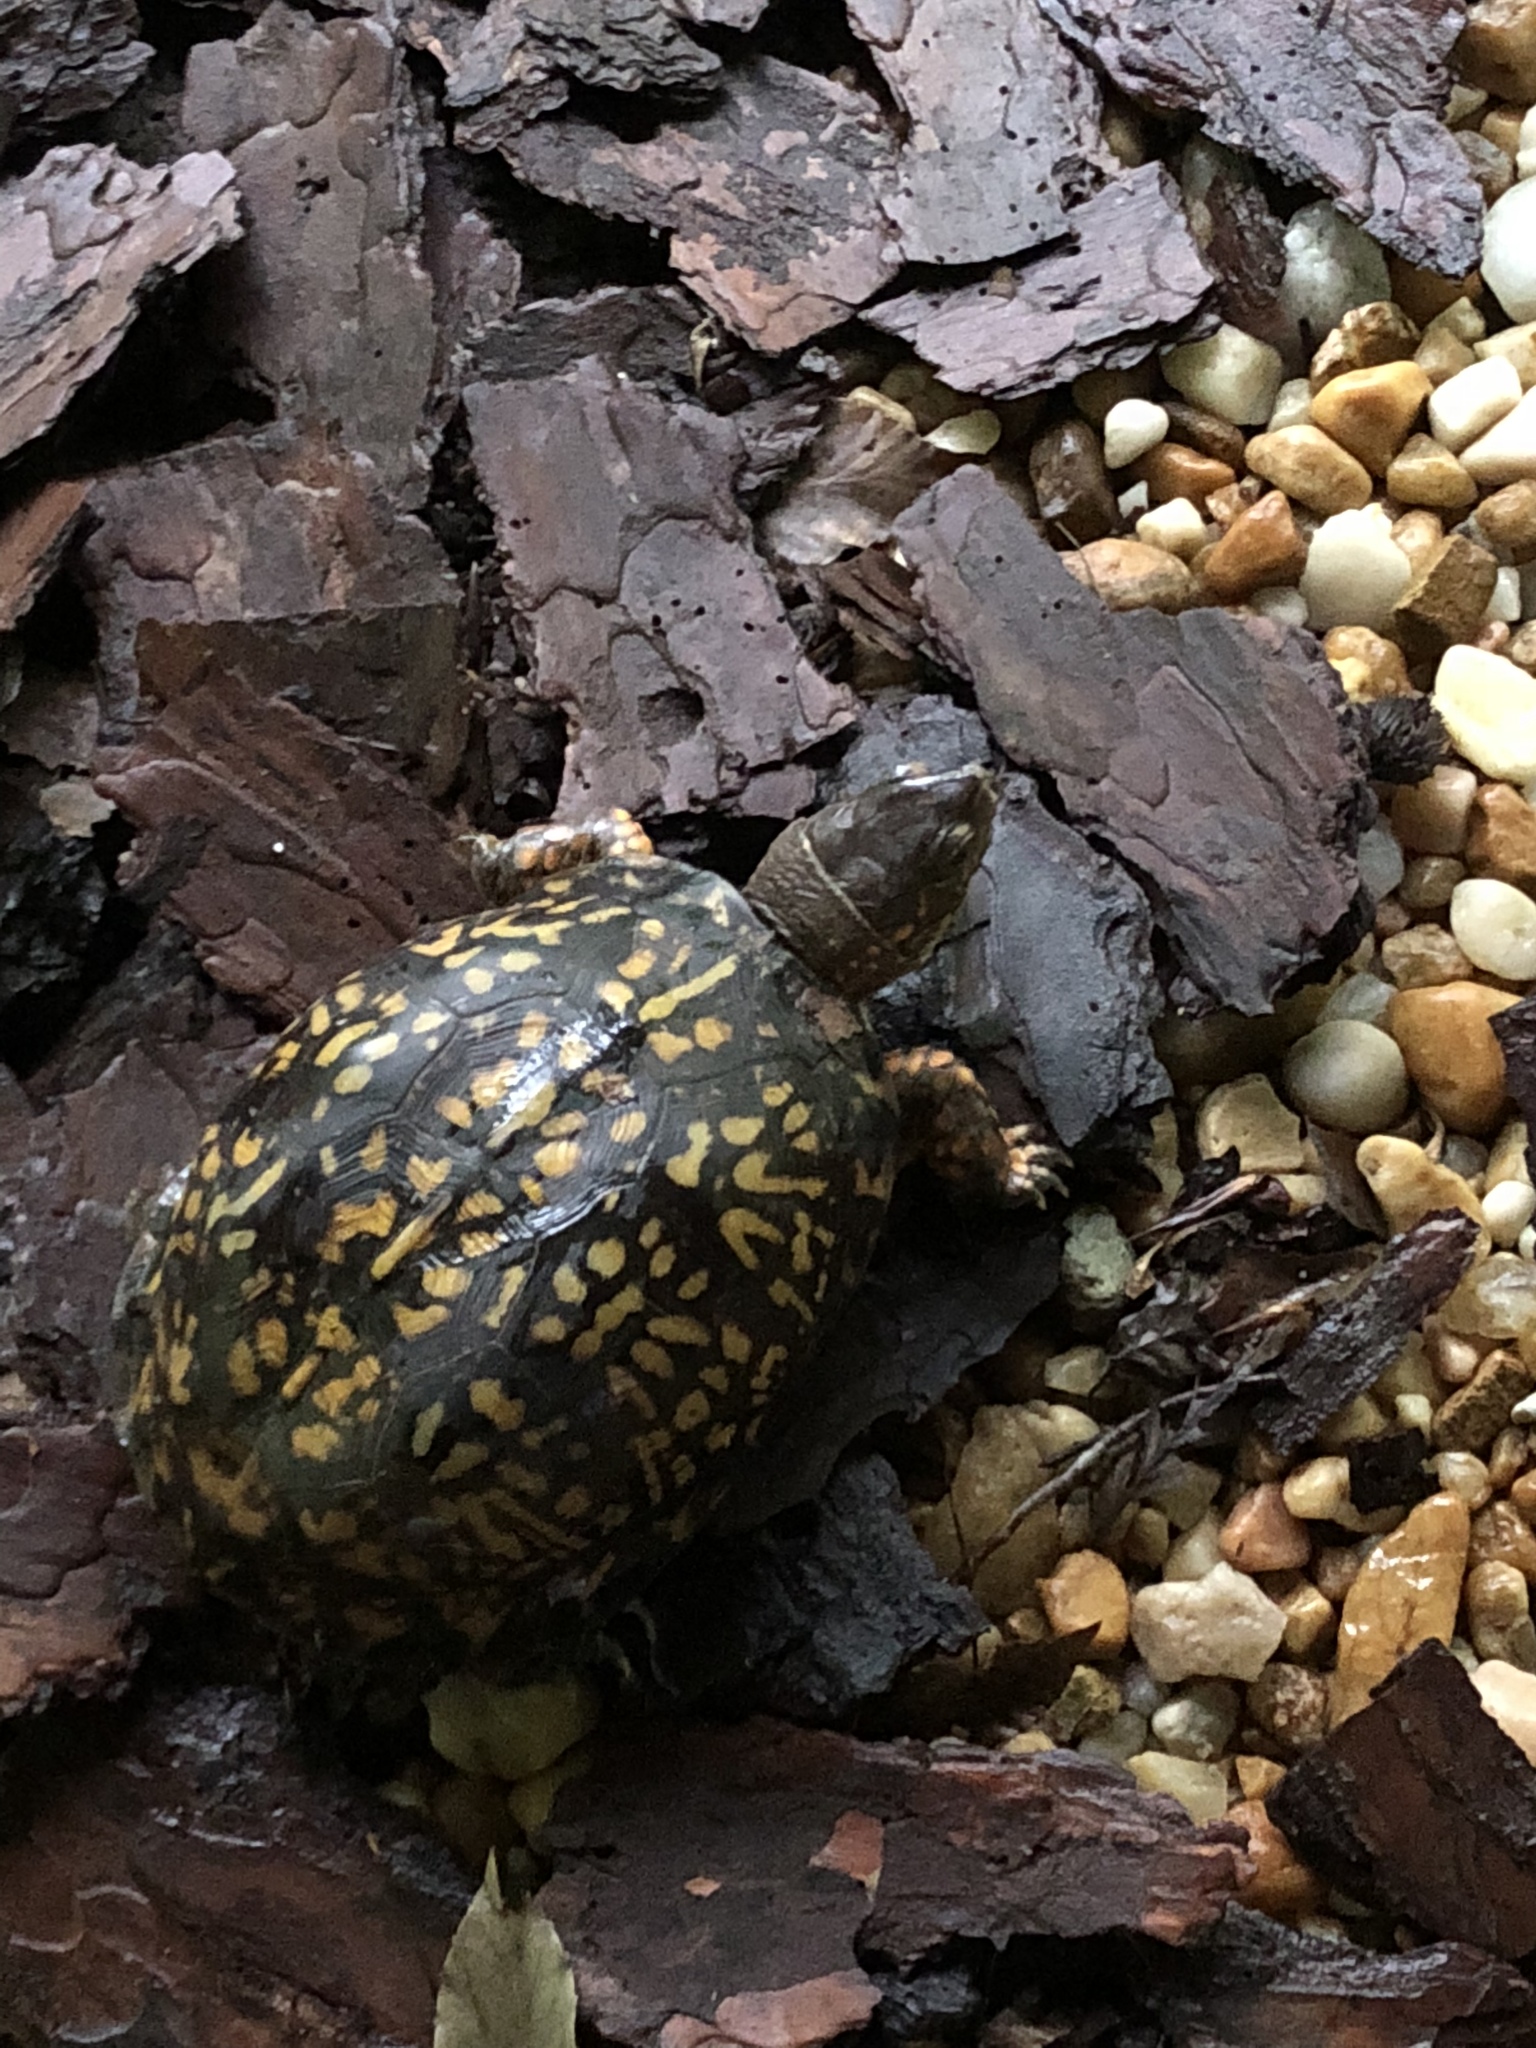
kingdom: Animalia
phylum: Chordata
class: Testudines
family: Emydidae
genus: Terrapene
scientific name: Terrapene carolina
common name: Common box turtle
